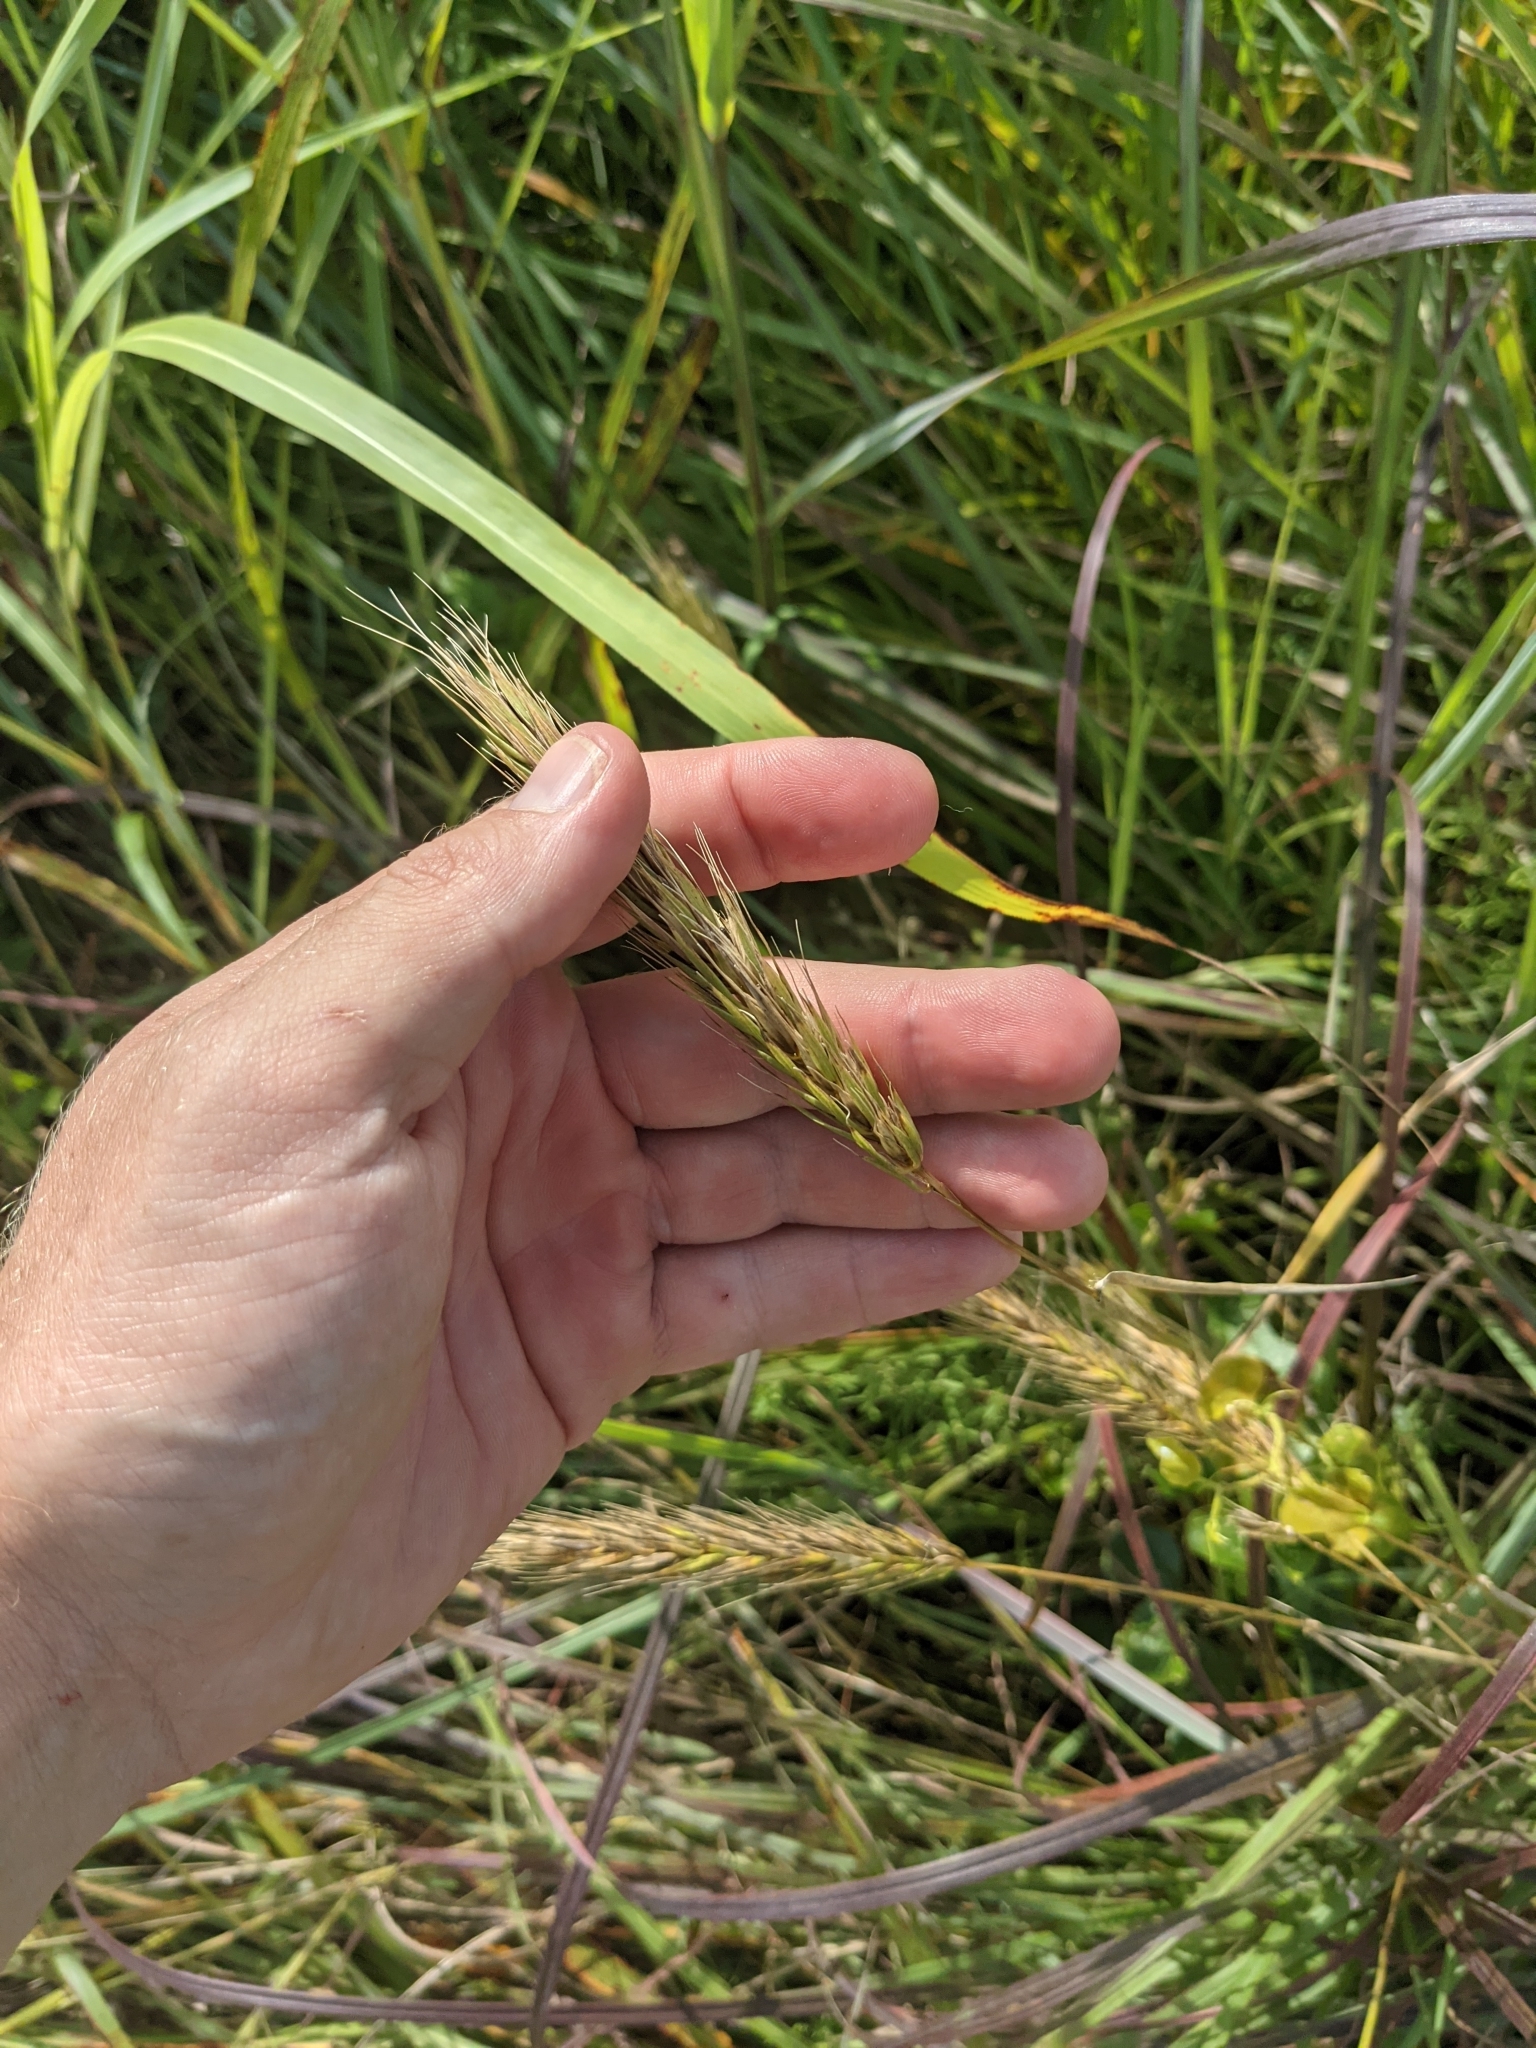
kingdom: Plantae
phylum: Tracheophyta
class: Liliopsida
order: Poales
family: Poaceae
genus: Elymus
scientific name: Elymus virginicus
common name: Common eastern wildrye
